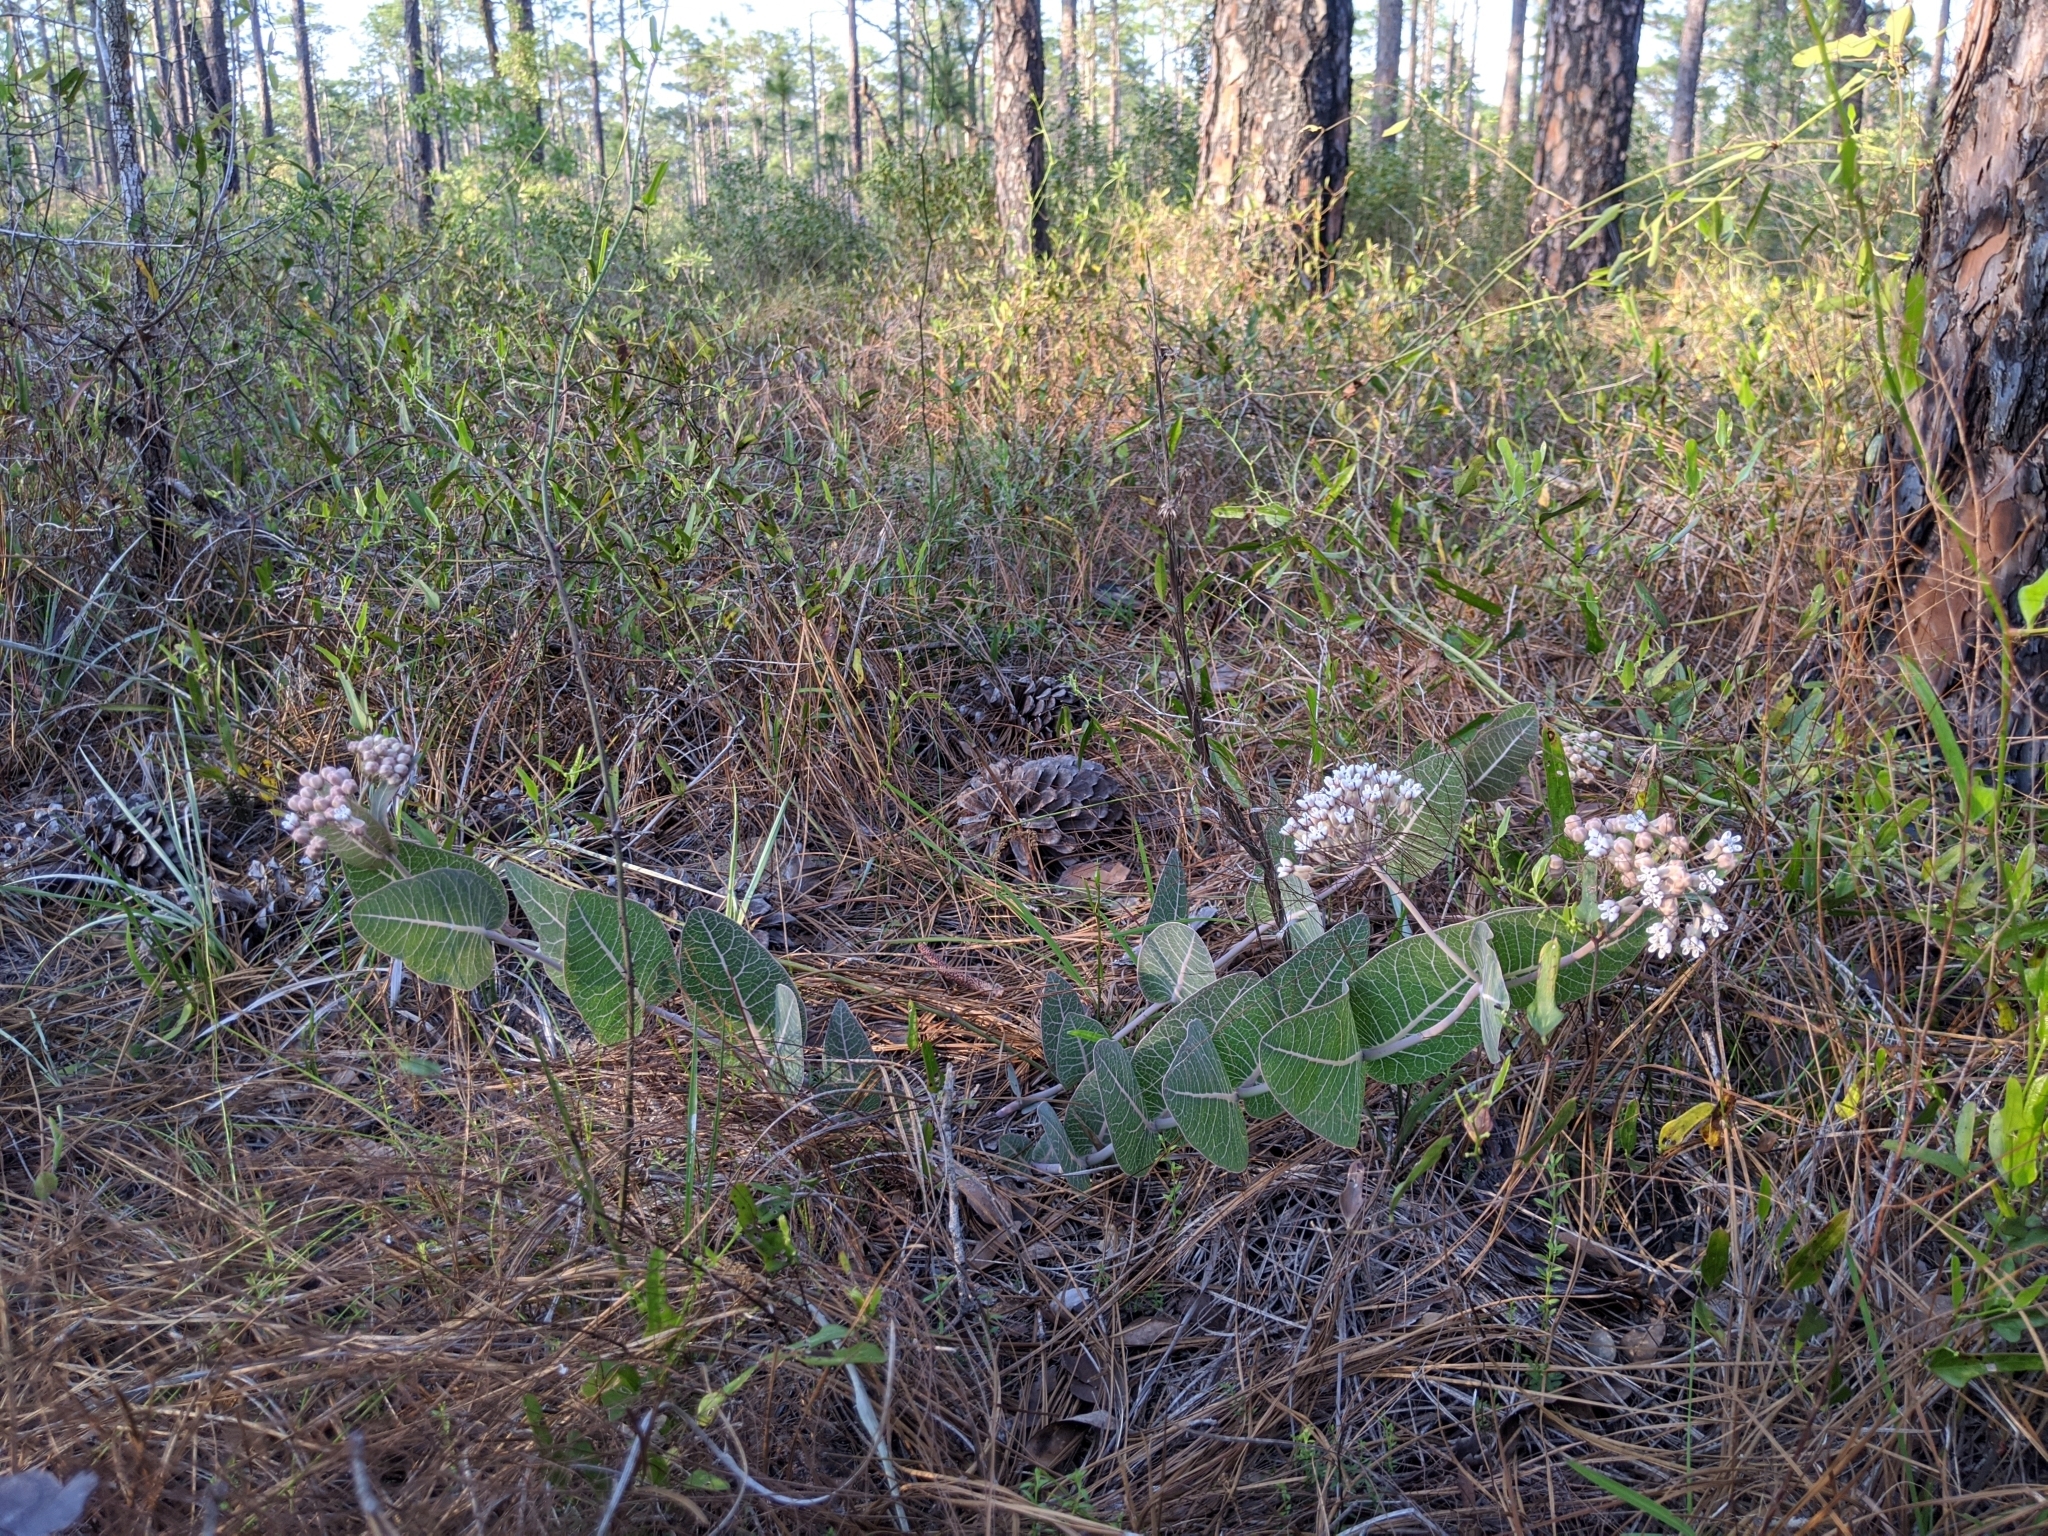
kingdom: Plantae
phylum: Tracheophyta
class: Magnoliopsida
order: Gentianales
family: Apocynaceae
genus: Asclepias
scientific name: Asclepias humistrata
